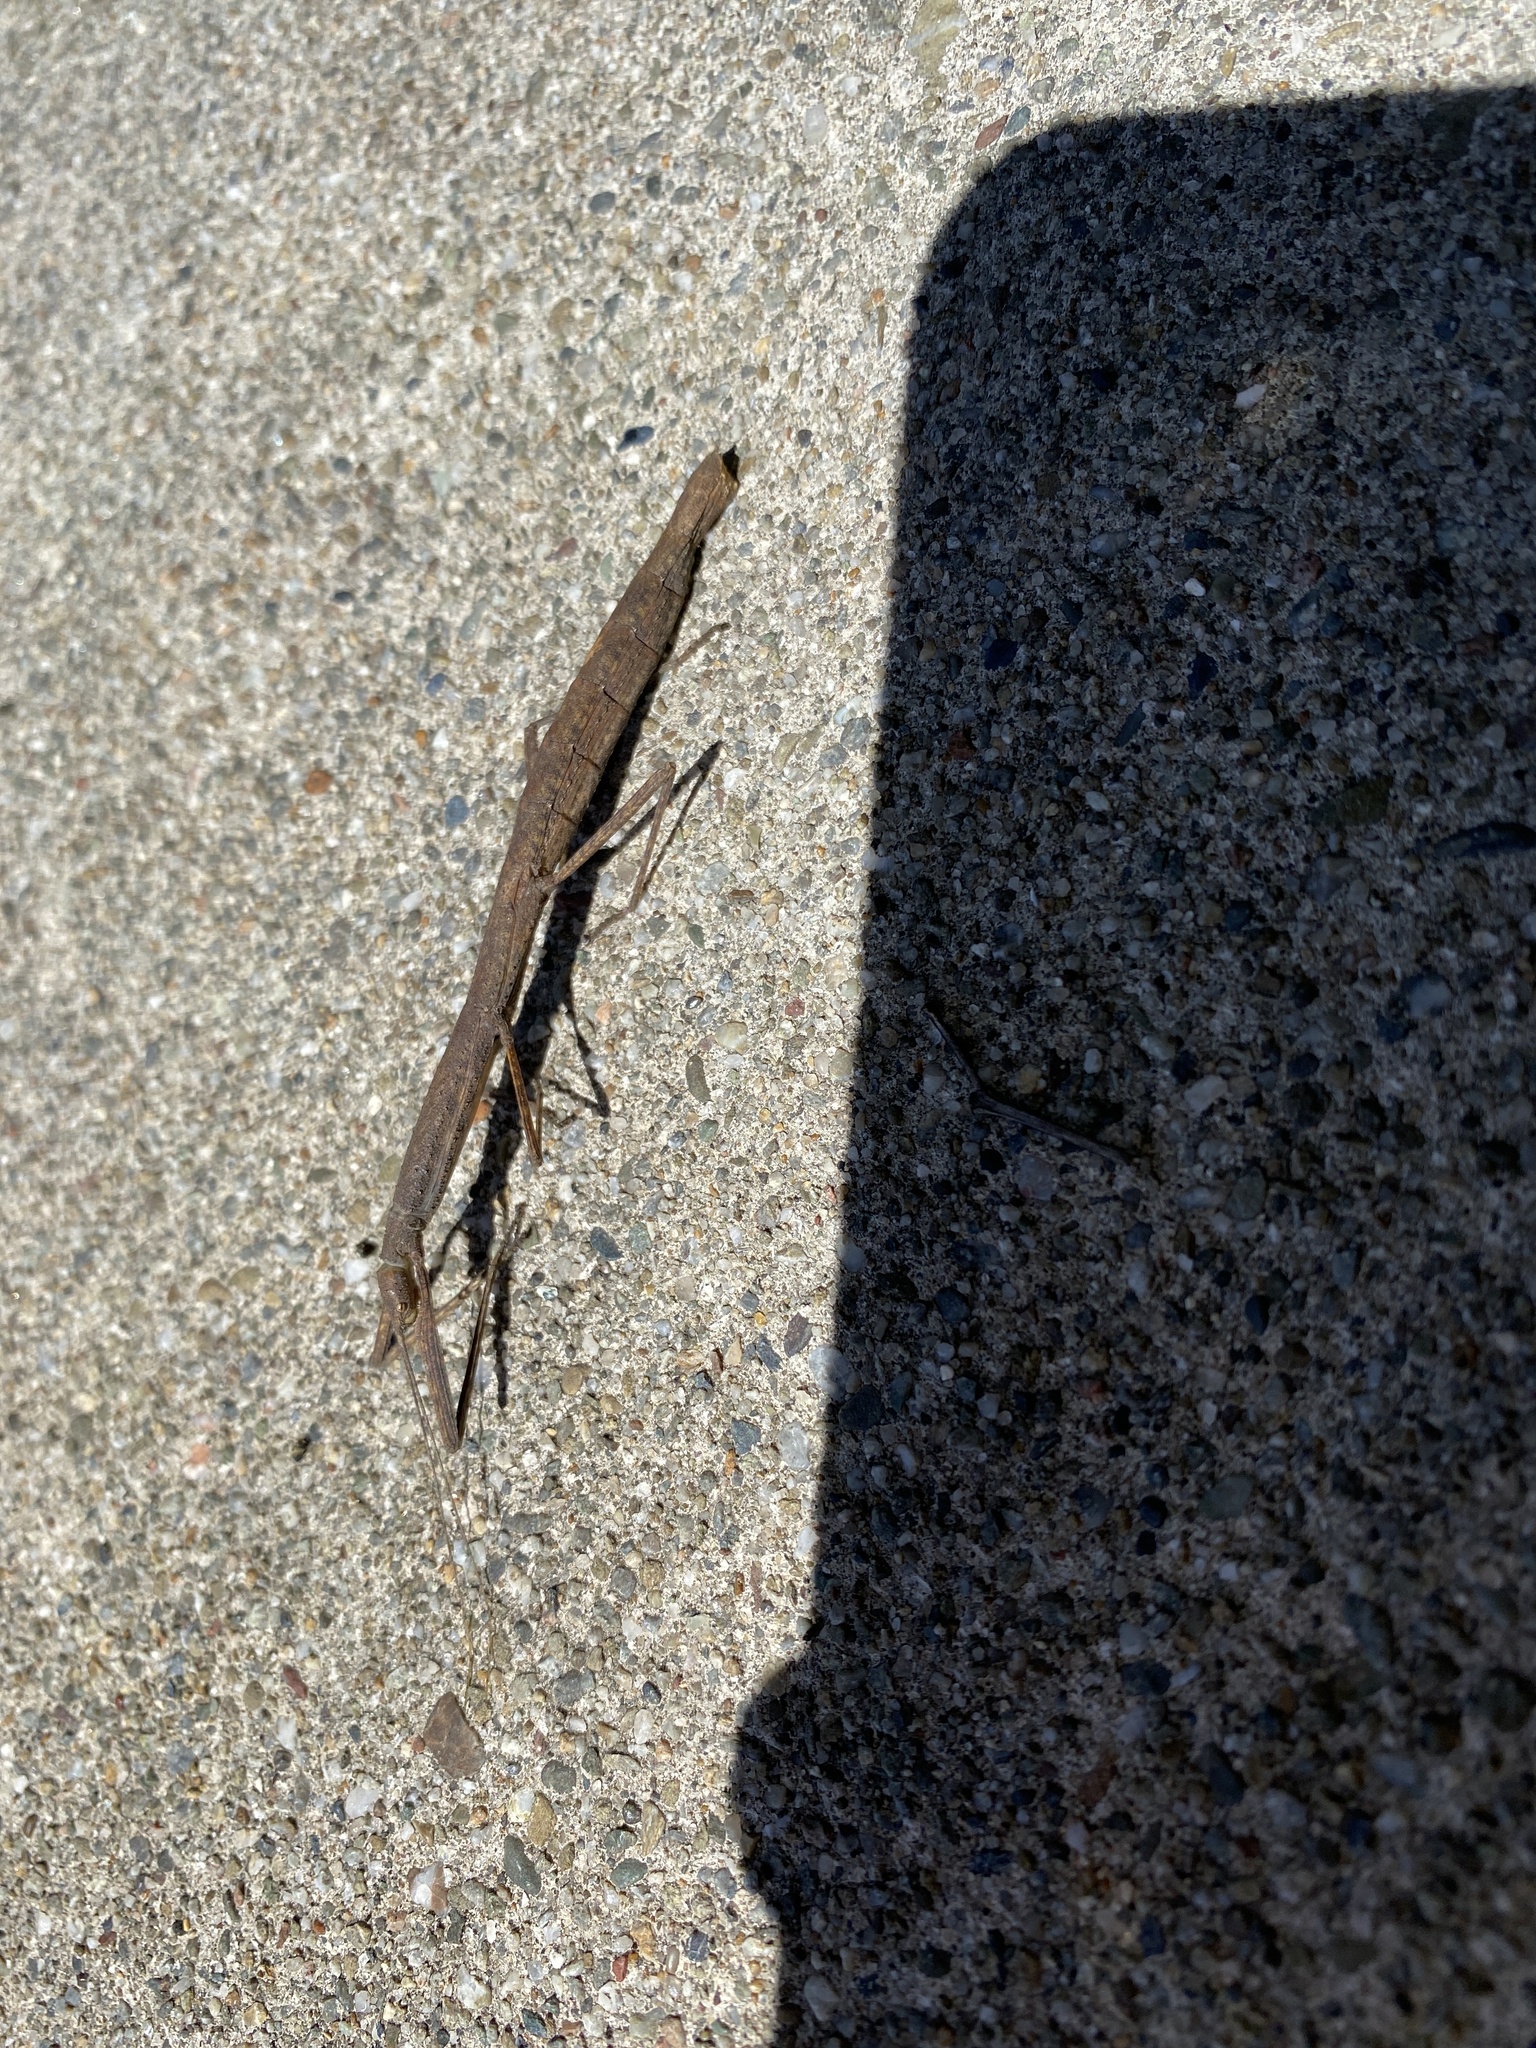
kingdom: Animalia
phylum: Arthropoda
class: Insecta
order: Phasmida
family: Lonchodidae
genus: Carausius
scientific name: Carausius morosus
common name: Indian stick insect
